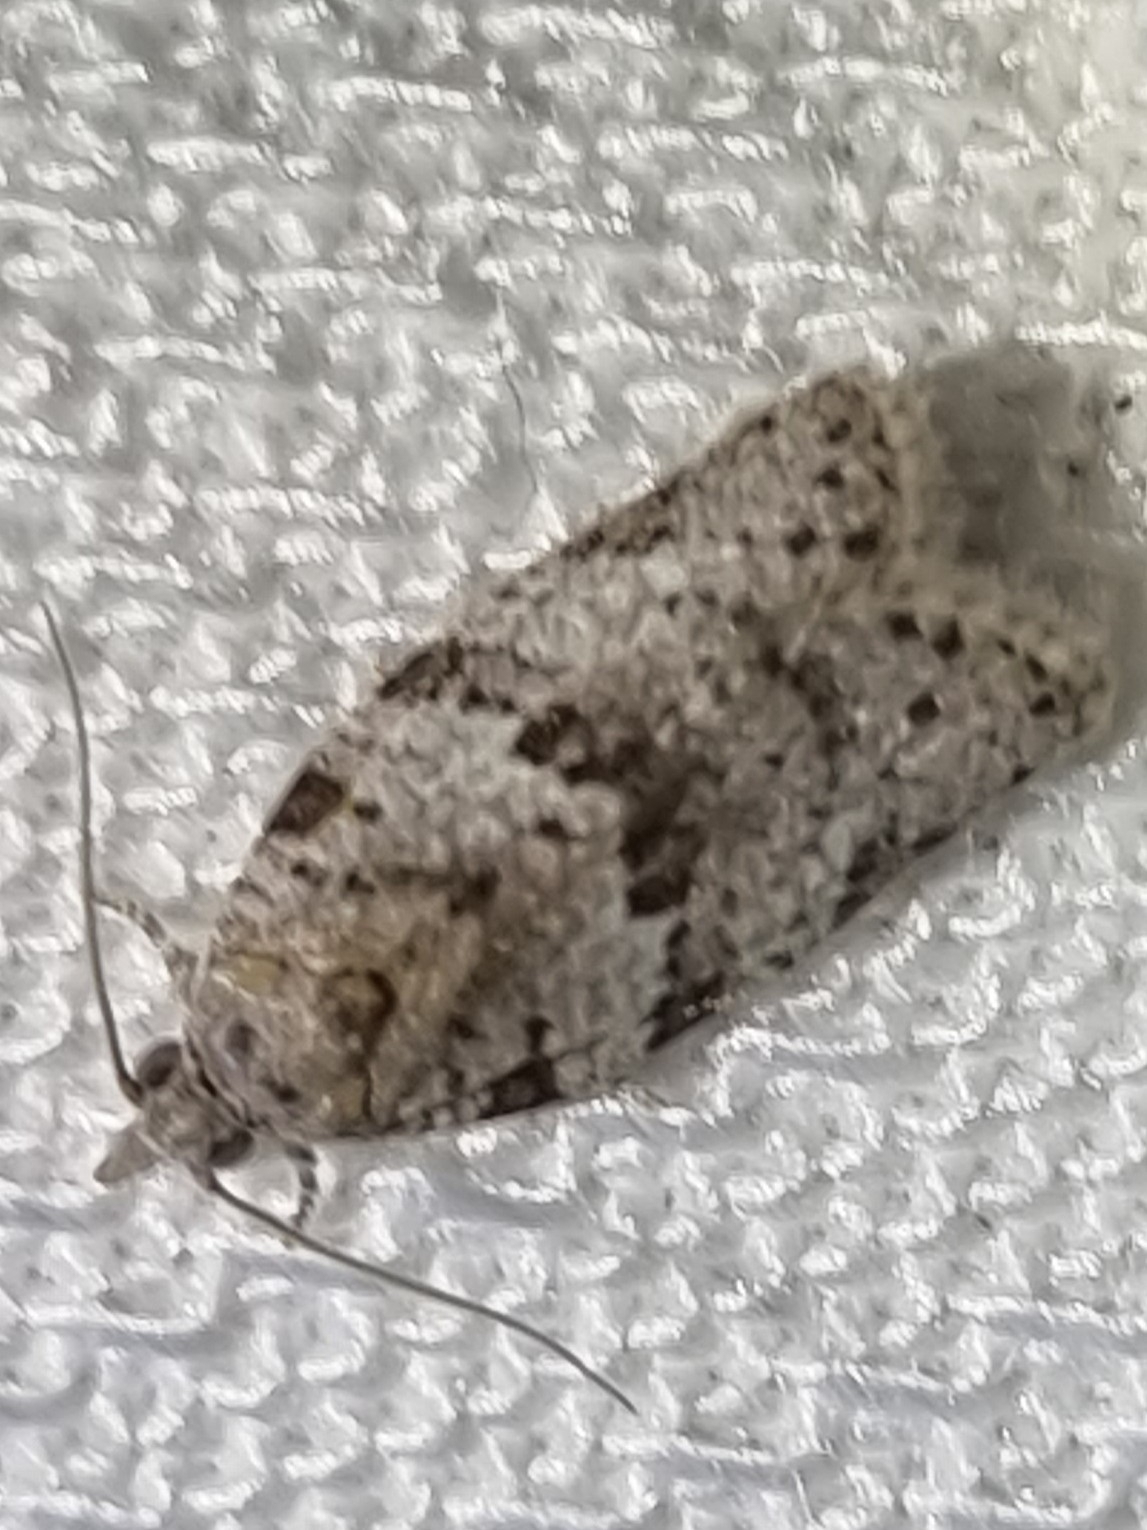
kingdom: Animalia
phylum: Arthropoda
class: Insecta
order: Lepidoptera
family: Tortricidae
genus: Isotenes
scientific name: Isotenes miserana
